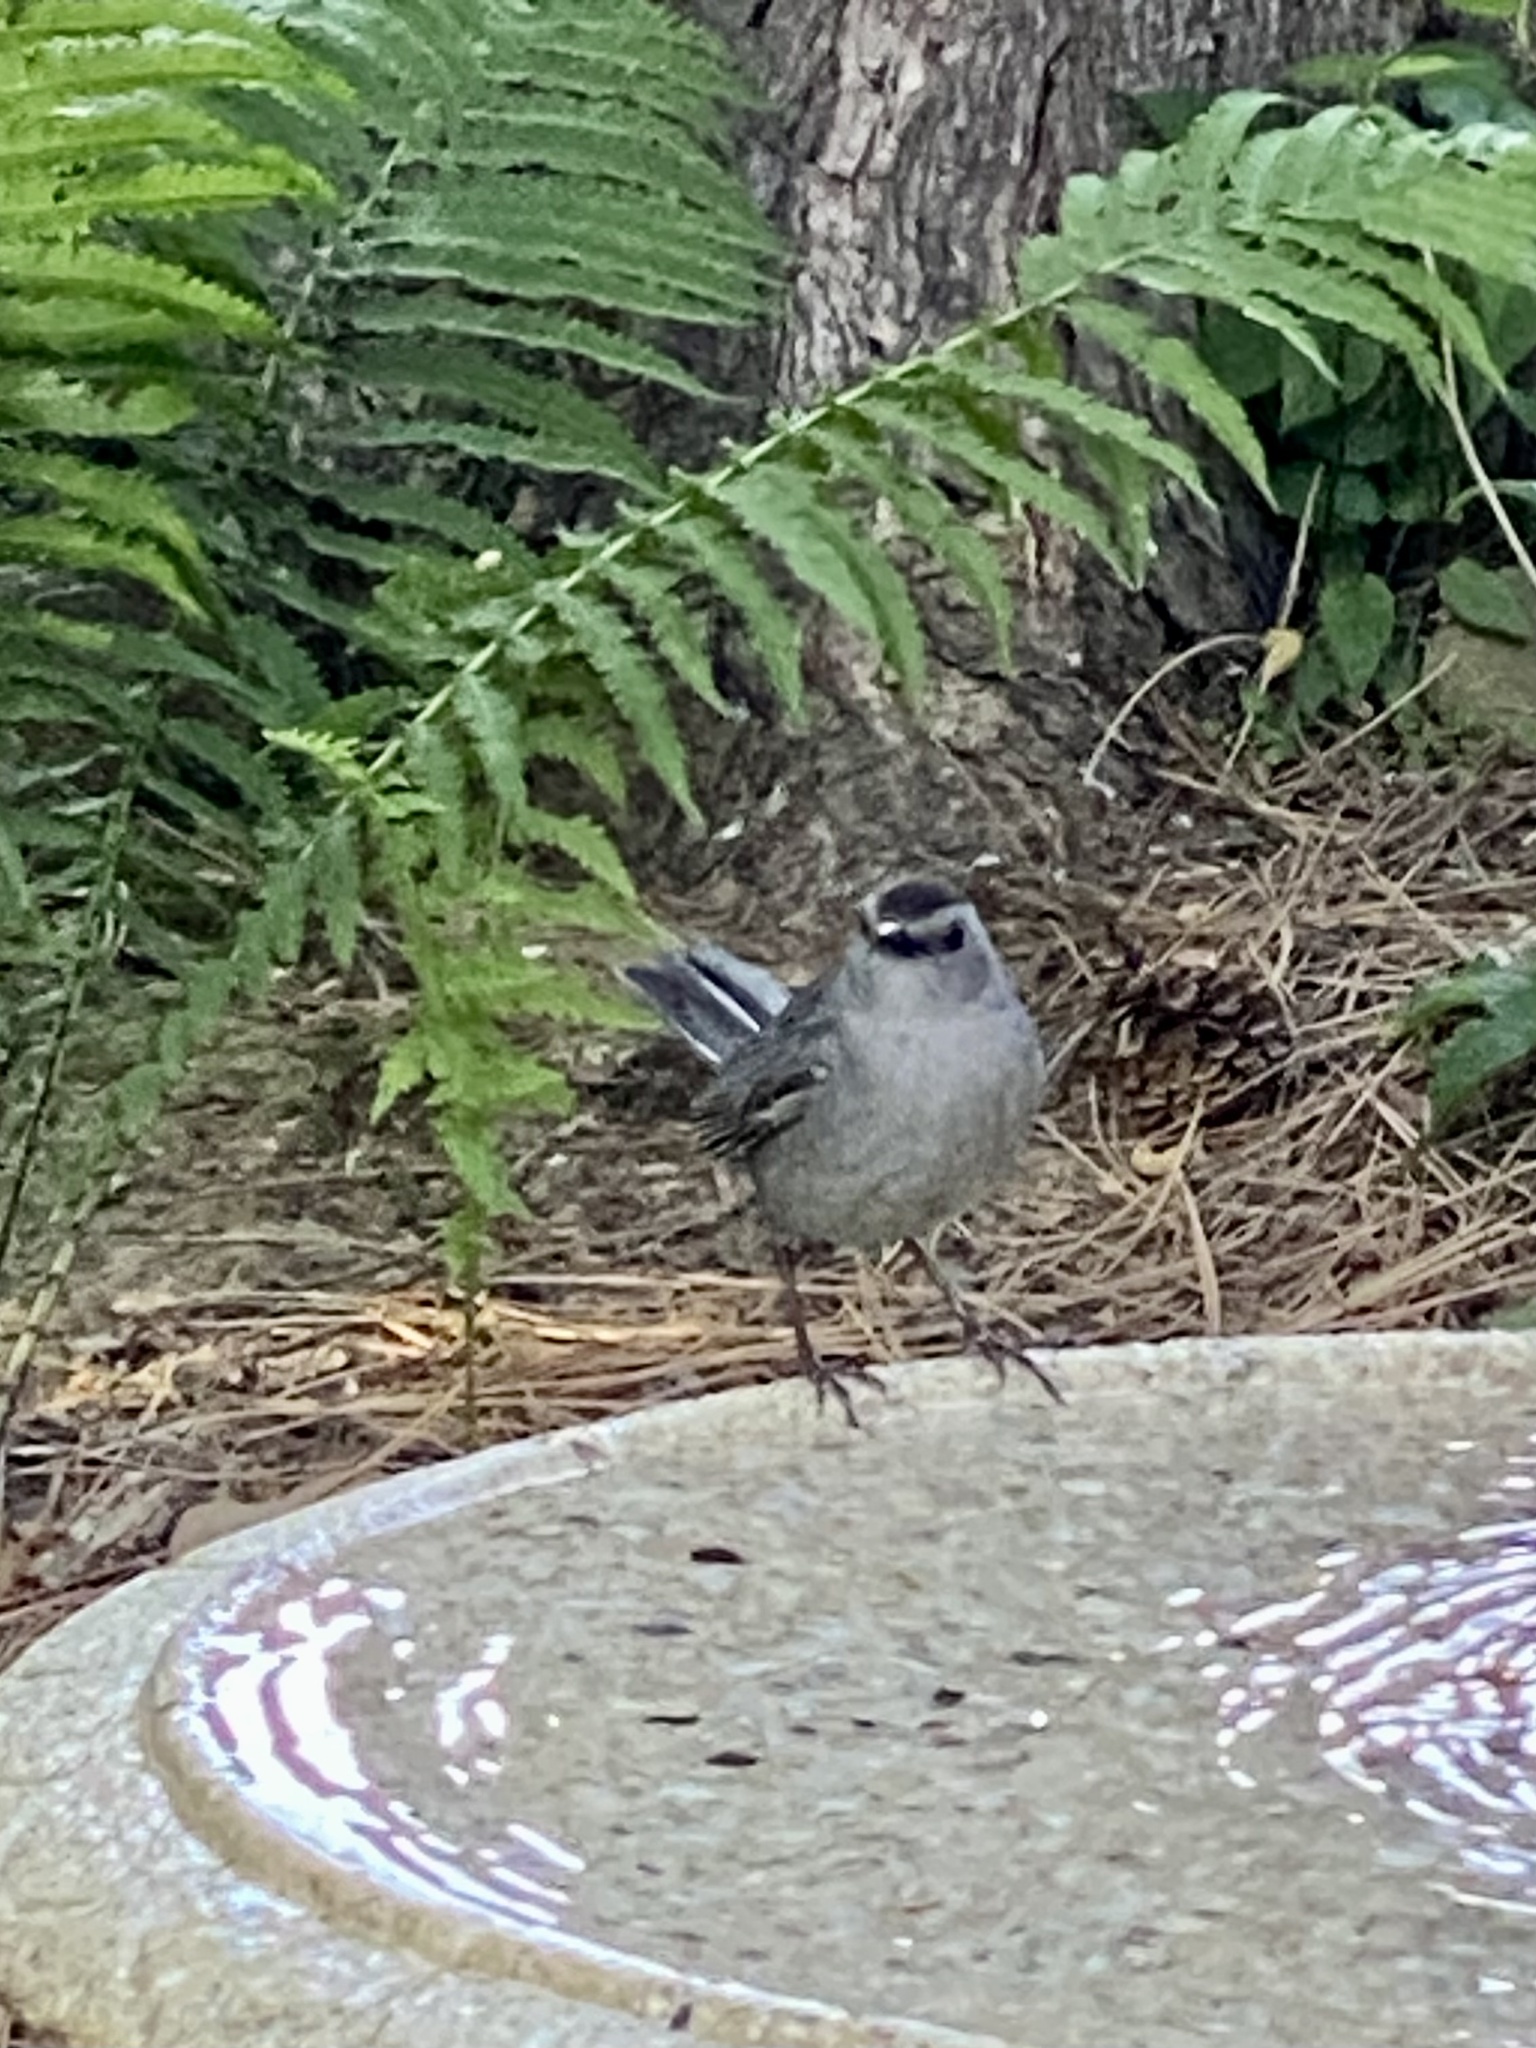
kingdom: Animalia
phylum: Chordata
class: Aves
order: Passeriformes
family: Mimidae
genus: Dumetella
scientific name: Dumetella carolinensis
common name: Gray catbird
